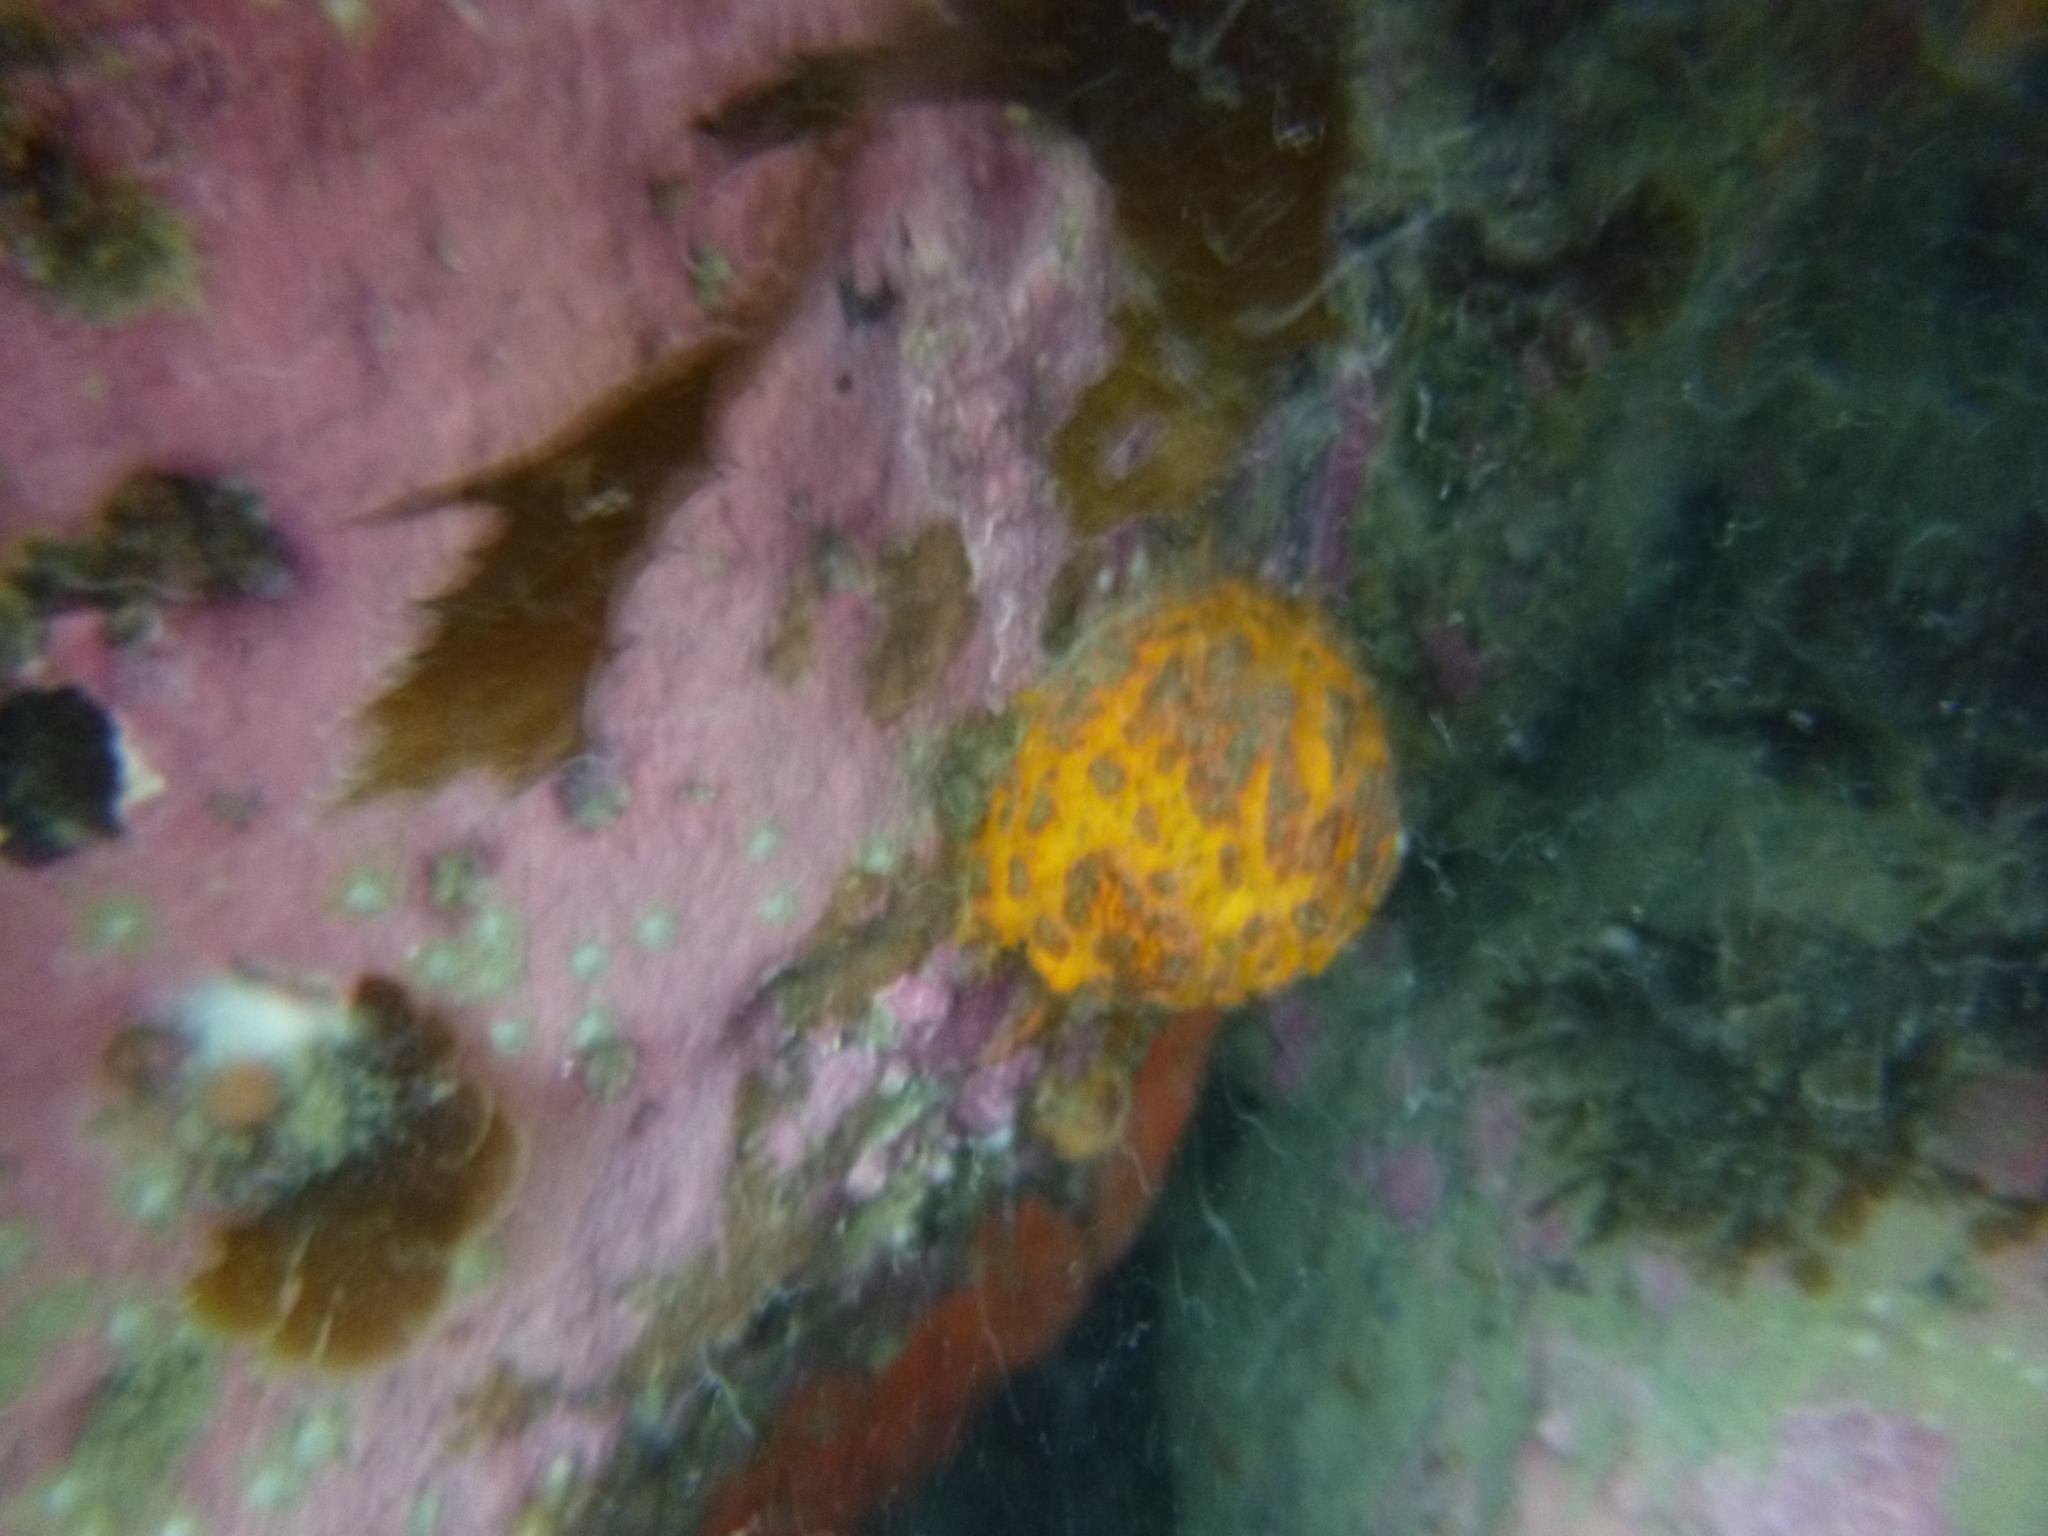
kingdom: Animalia
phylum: Porifera
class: Demospongiae
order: Tethyida
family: Tethyidae
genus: Tethya
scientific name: Tethya burtoni
